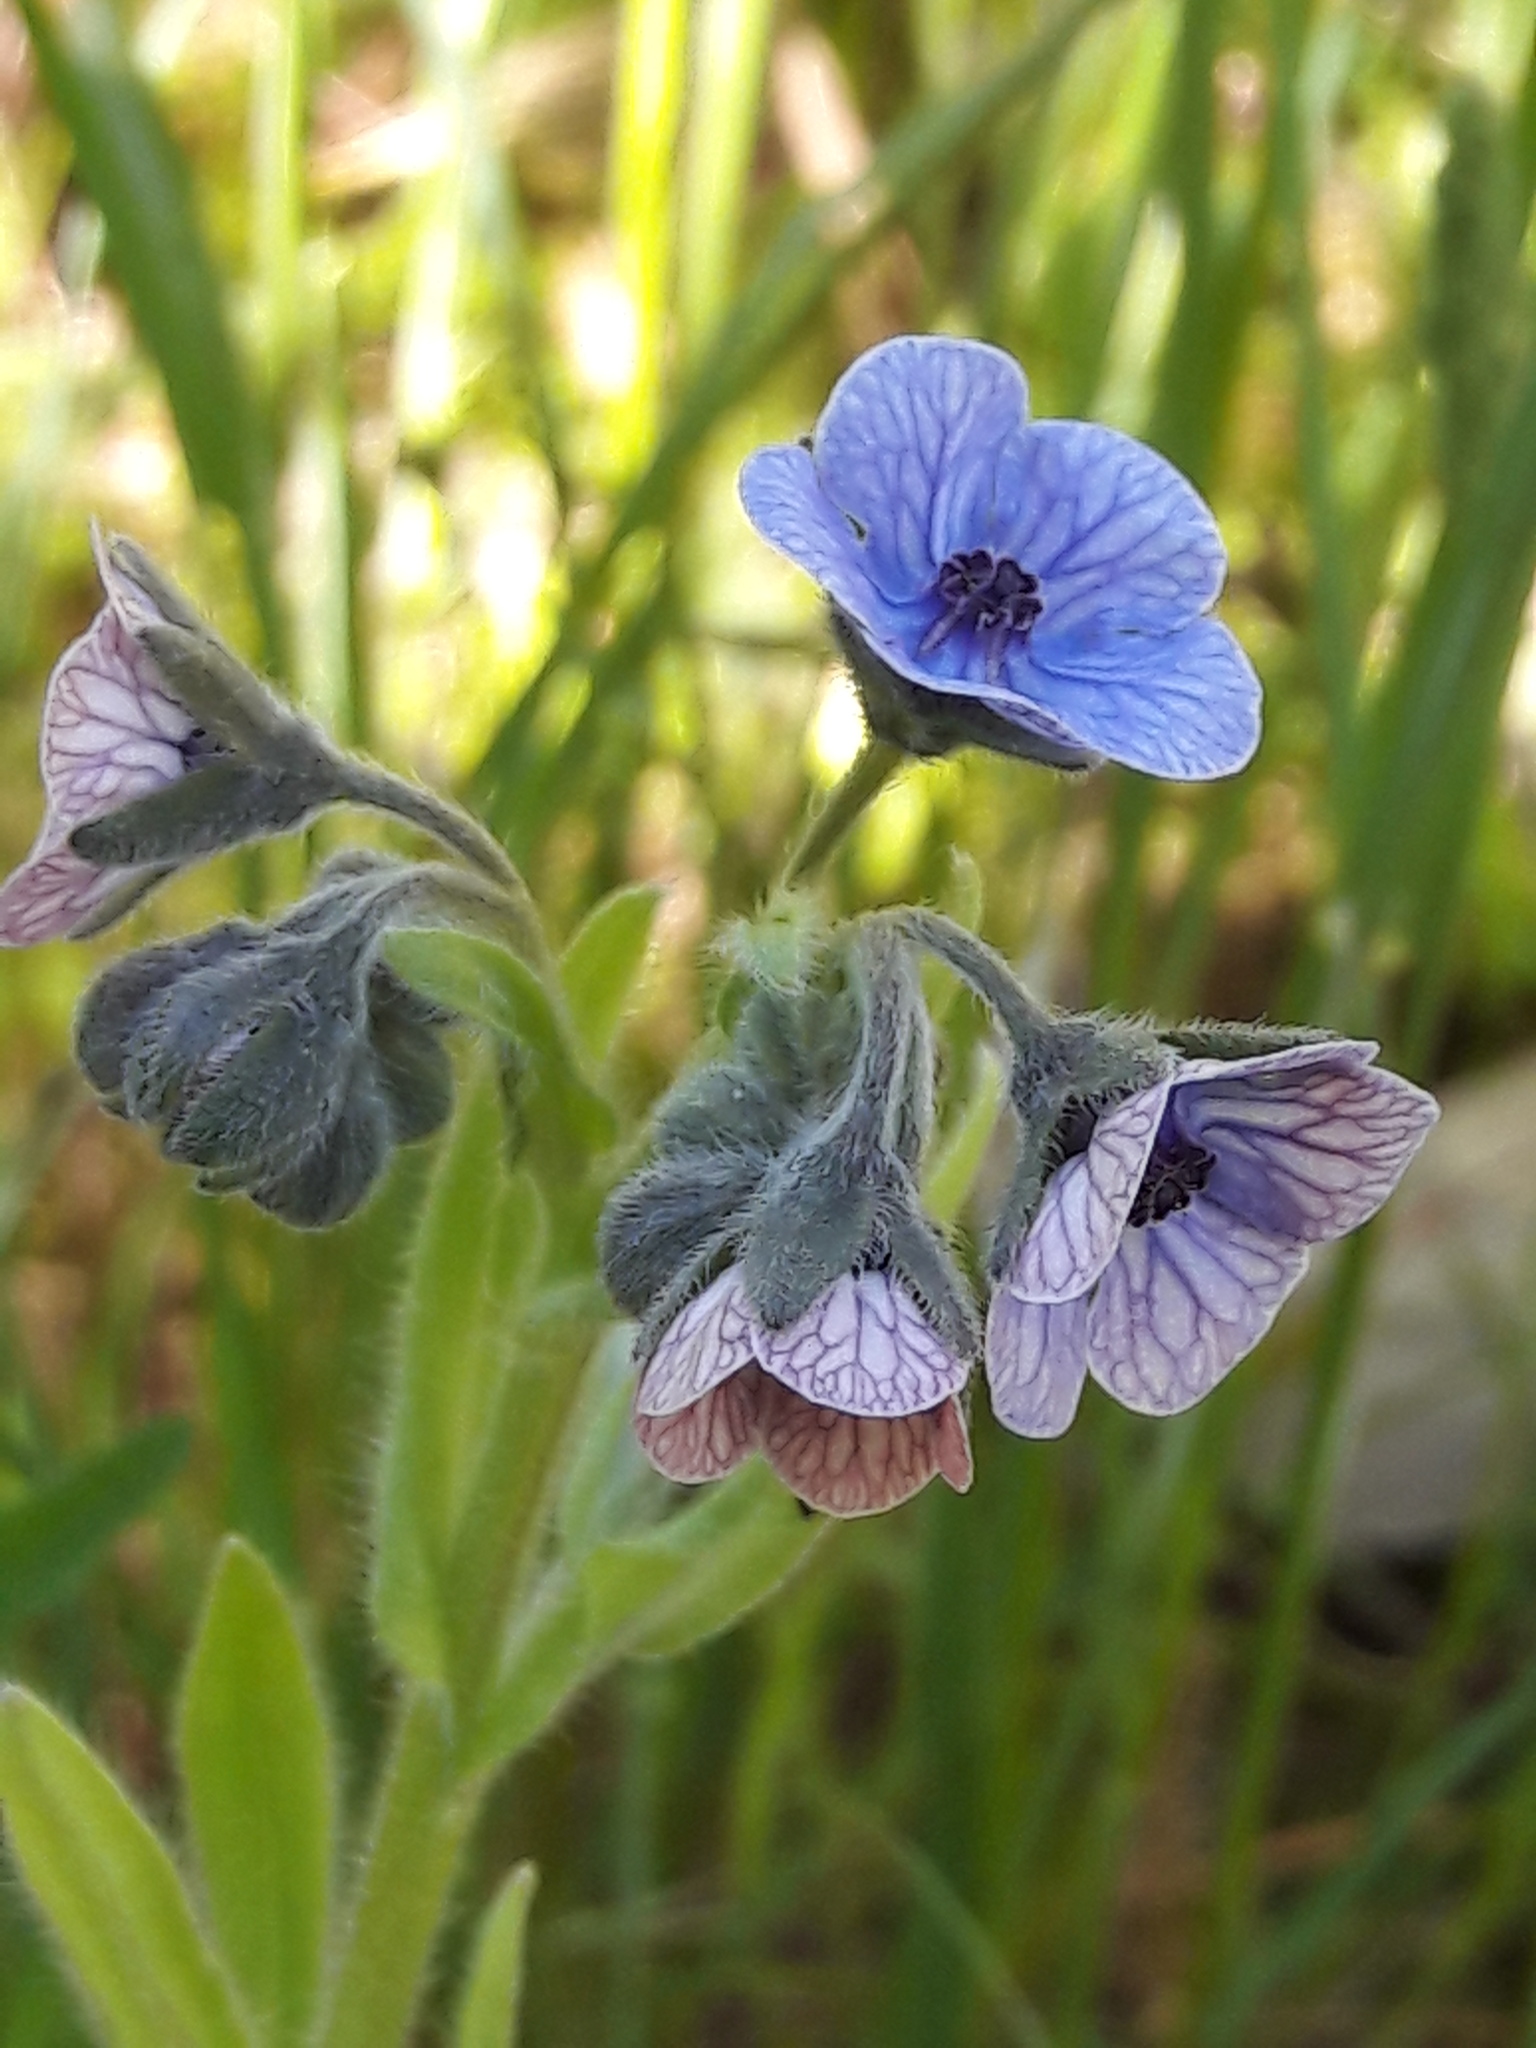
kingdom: Plantae
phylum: Tracheophyta
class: Magnoliopsida
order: Boraginales
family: Boraginaceae
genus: Cynoglossum
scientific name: Cynoglossum creticum
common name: Blue hound's tongue
